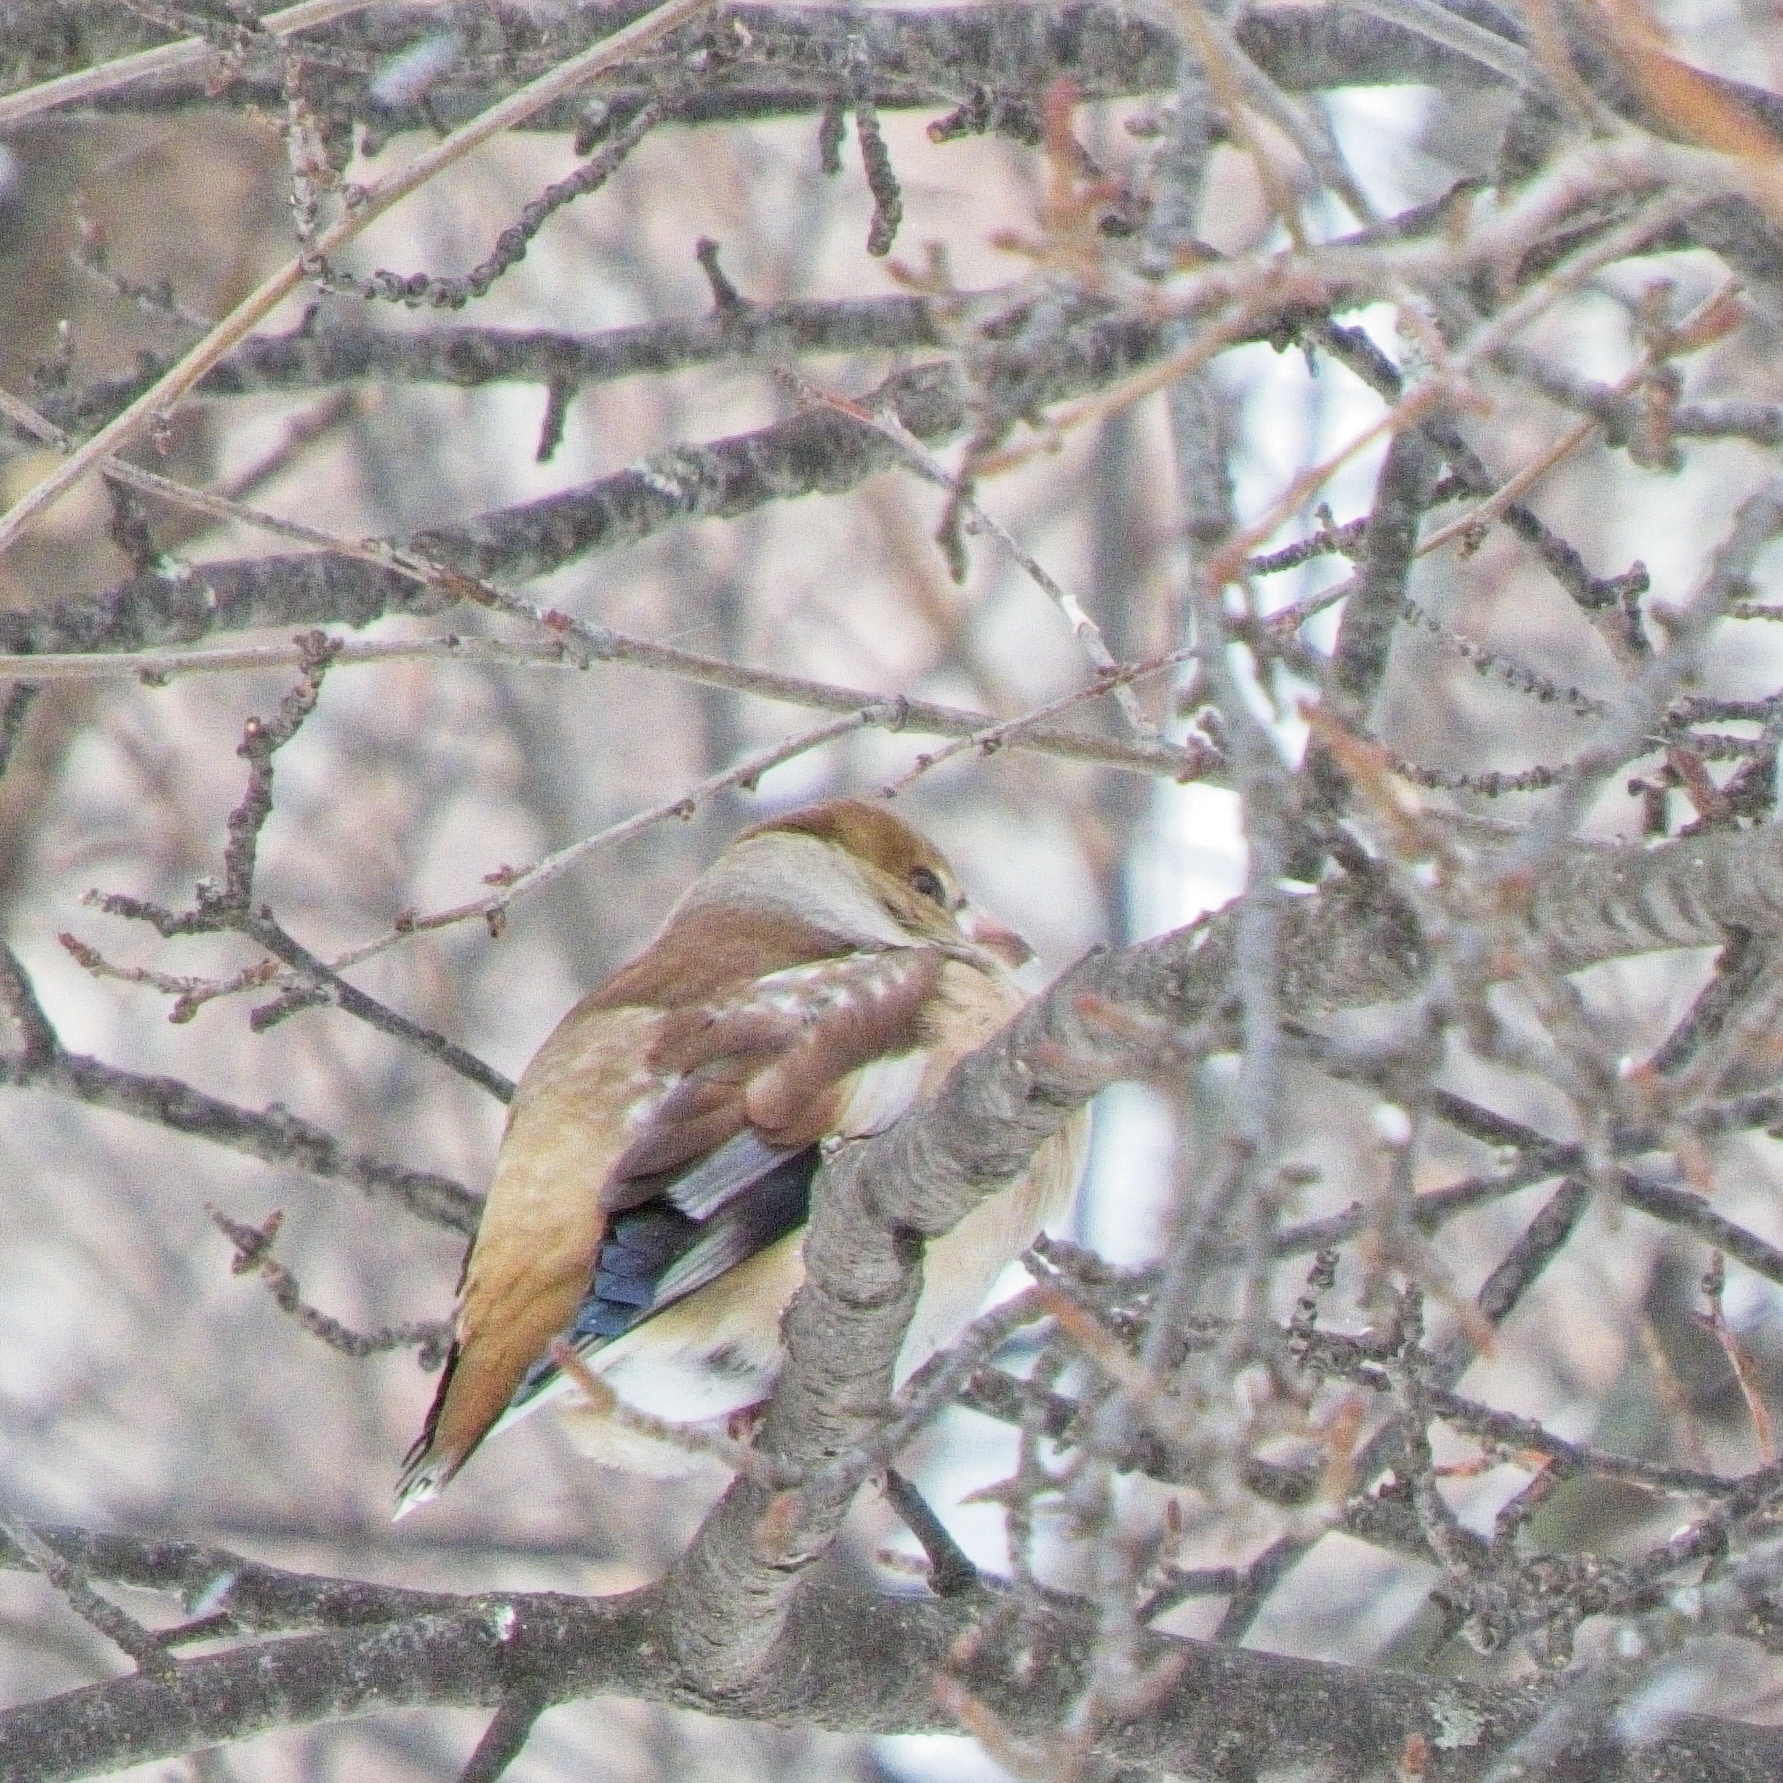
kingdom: Animalia
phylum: Chordata
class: Aves
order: Passeriformes
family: Fringillidae
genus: Coccothraustes
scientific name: Coccothraustes coccothraustes
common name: Hawfinch
